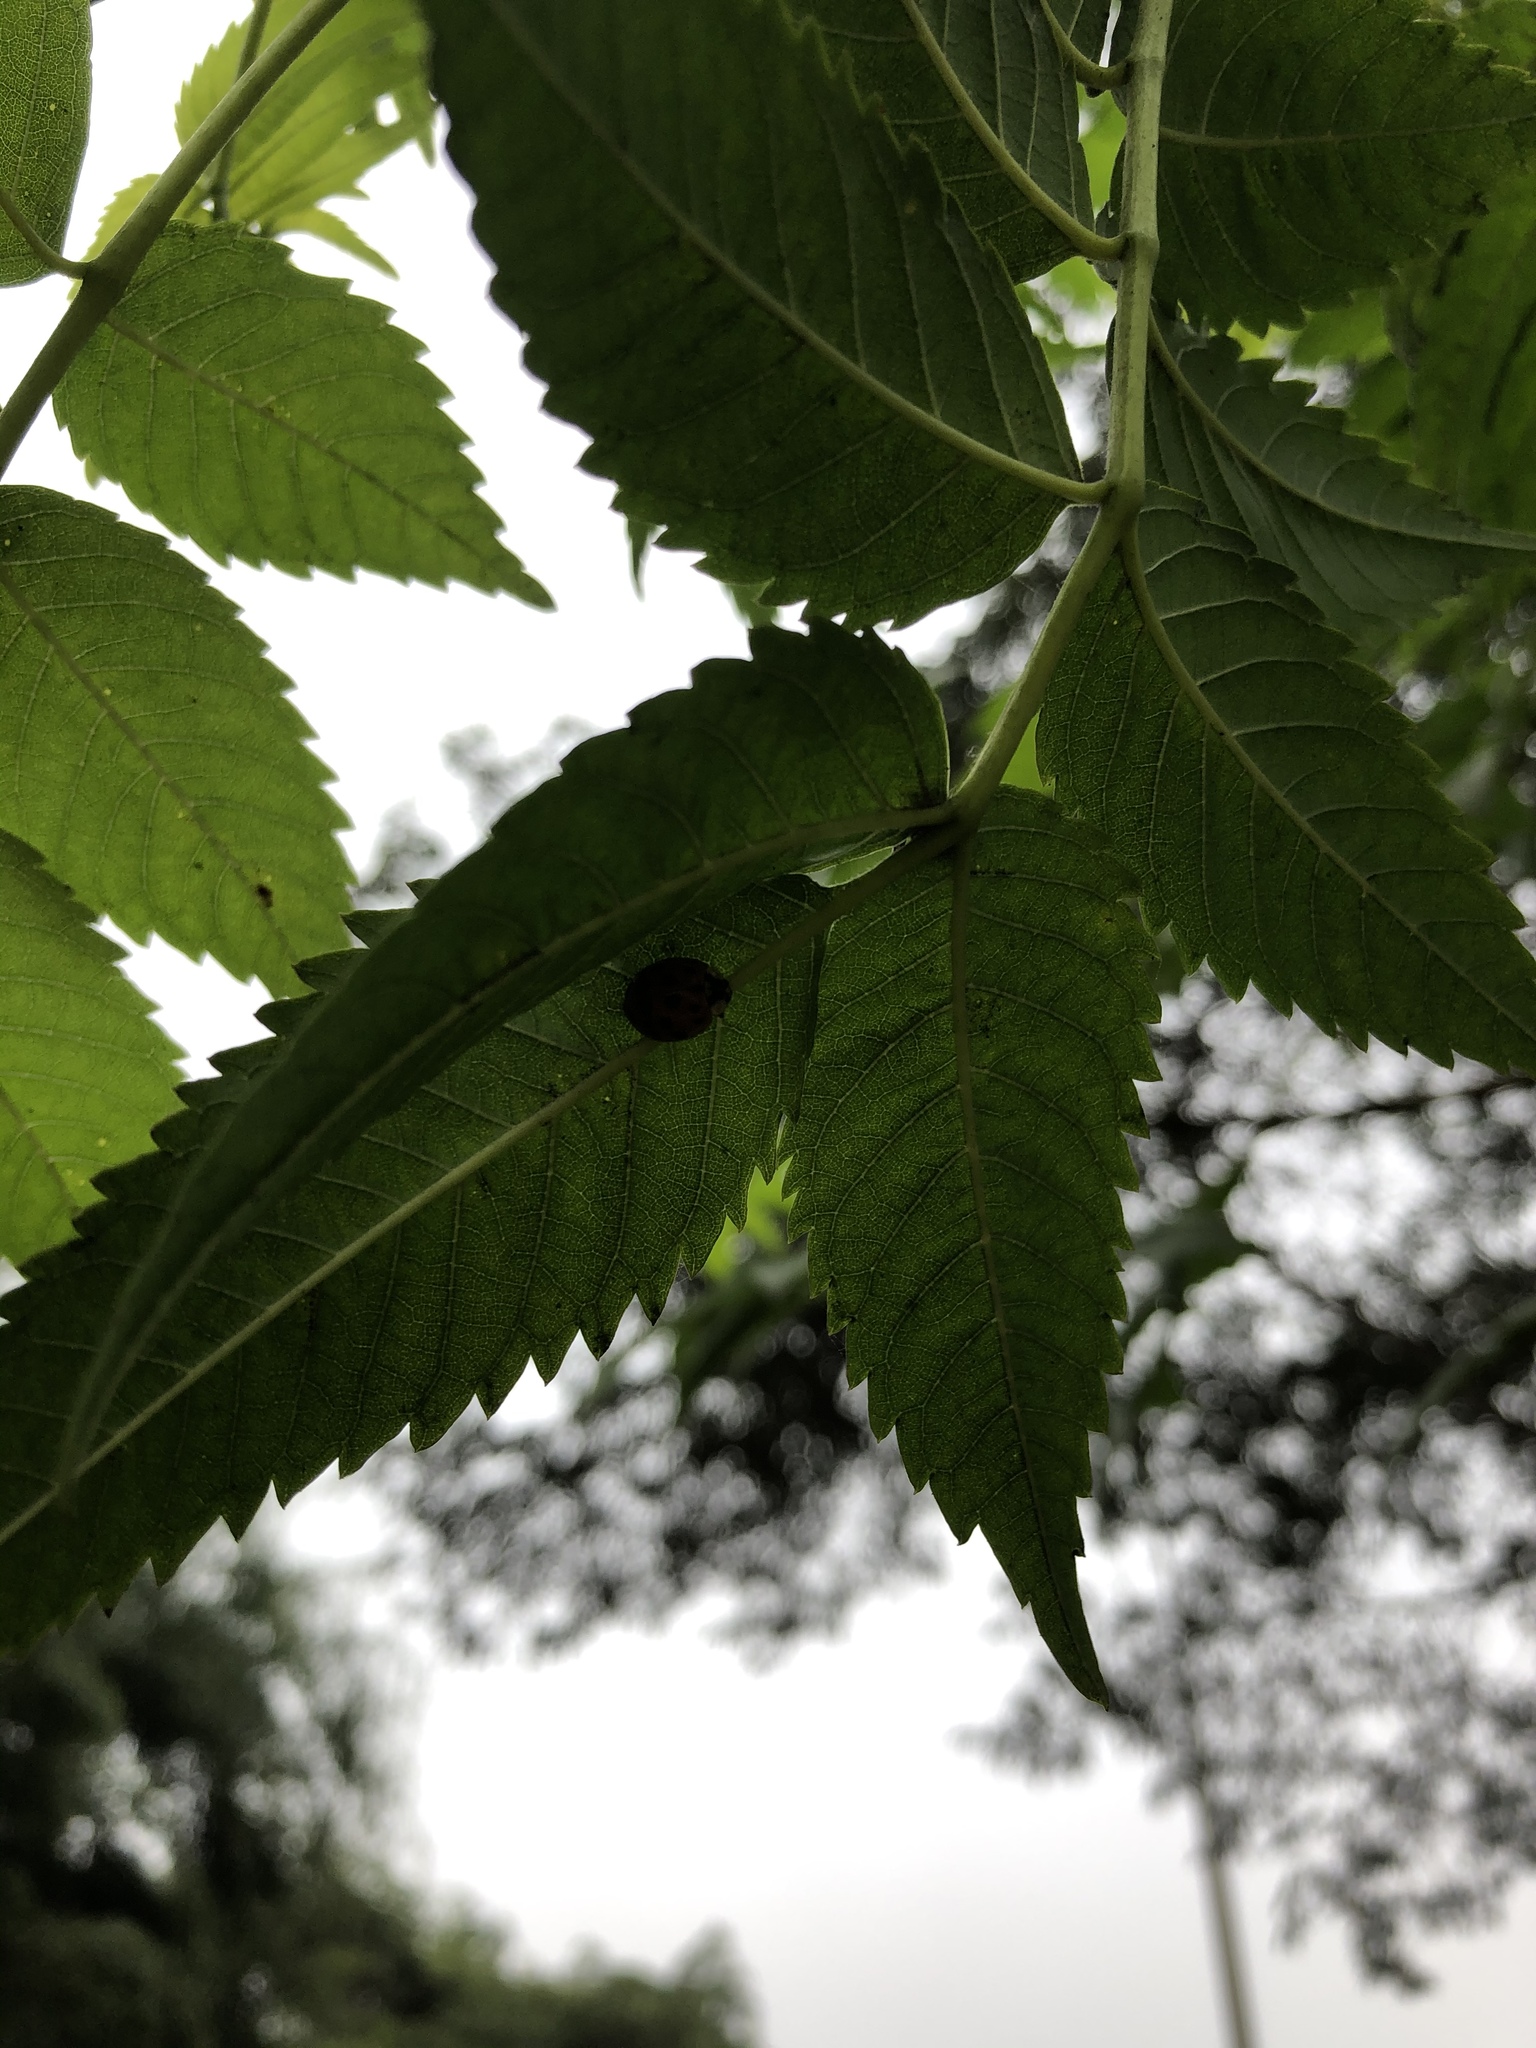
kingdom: Animalia
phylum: Arthropoda
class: Insecta
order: Coleoptera
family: Coccinellidae
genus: Harmonia
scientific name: Harmonia axyridis
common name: Harlequin ladybird
